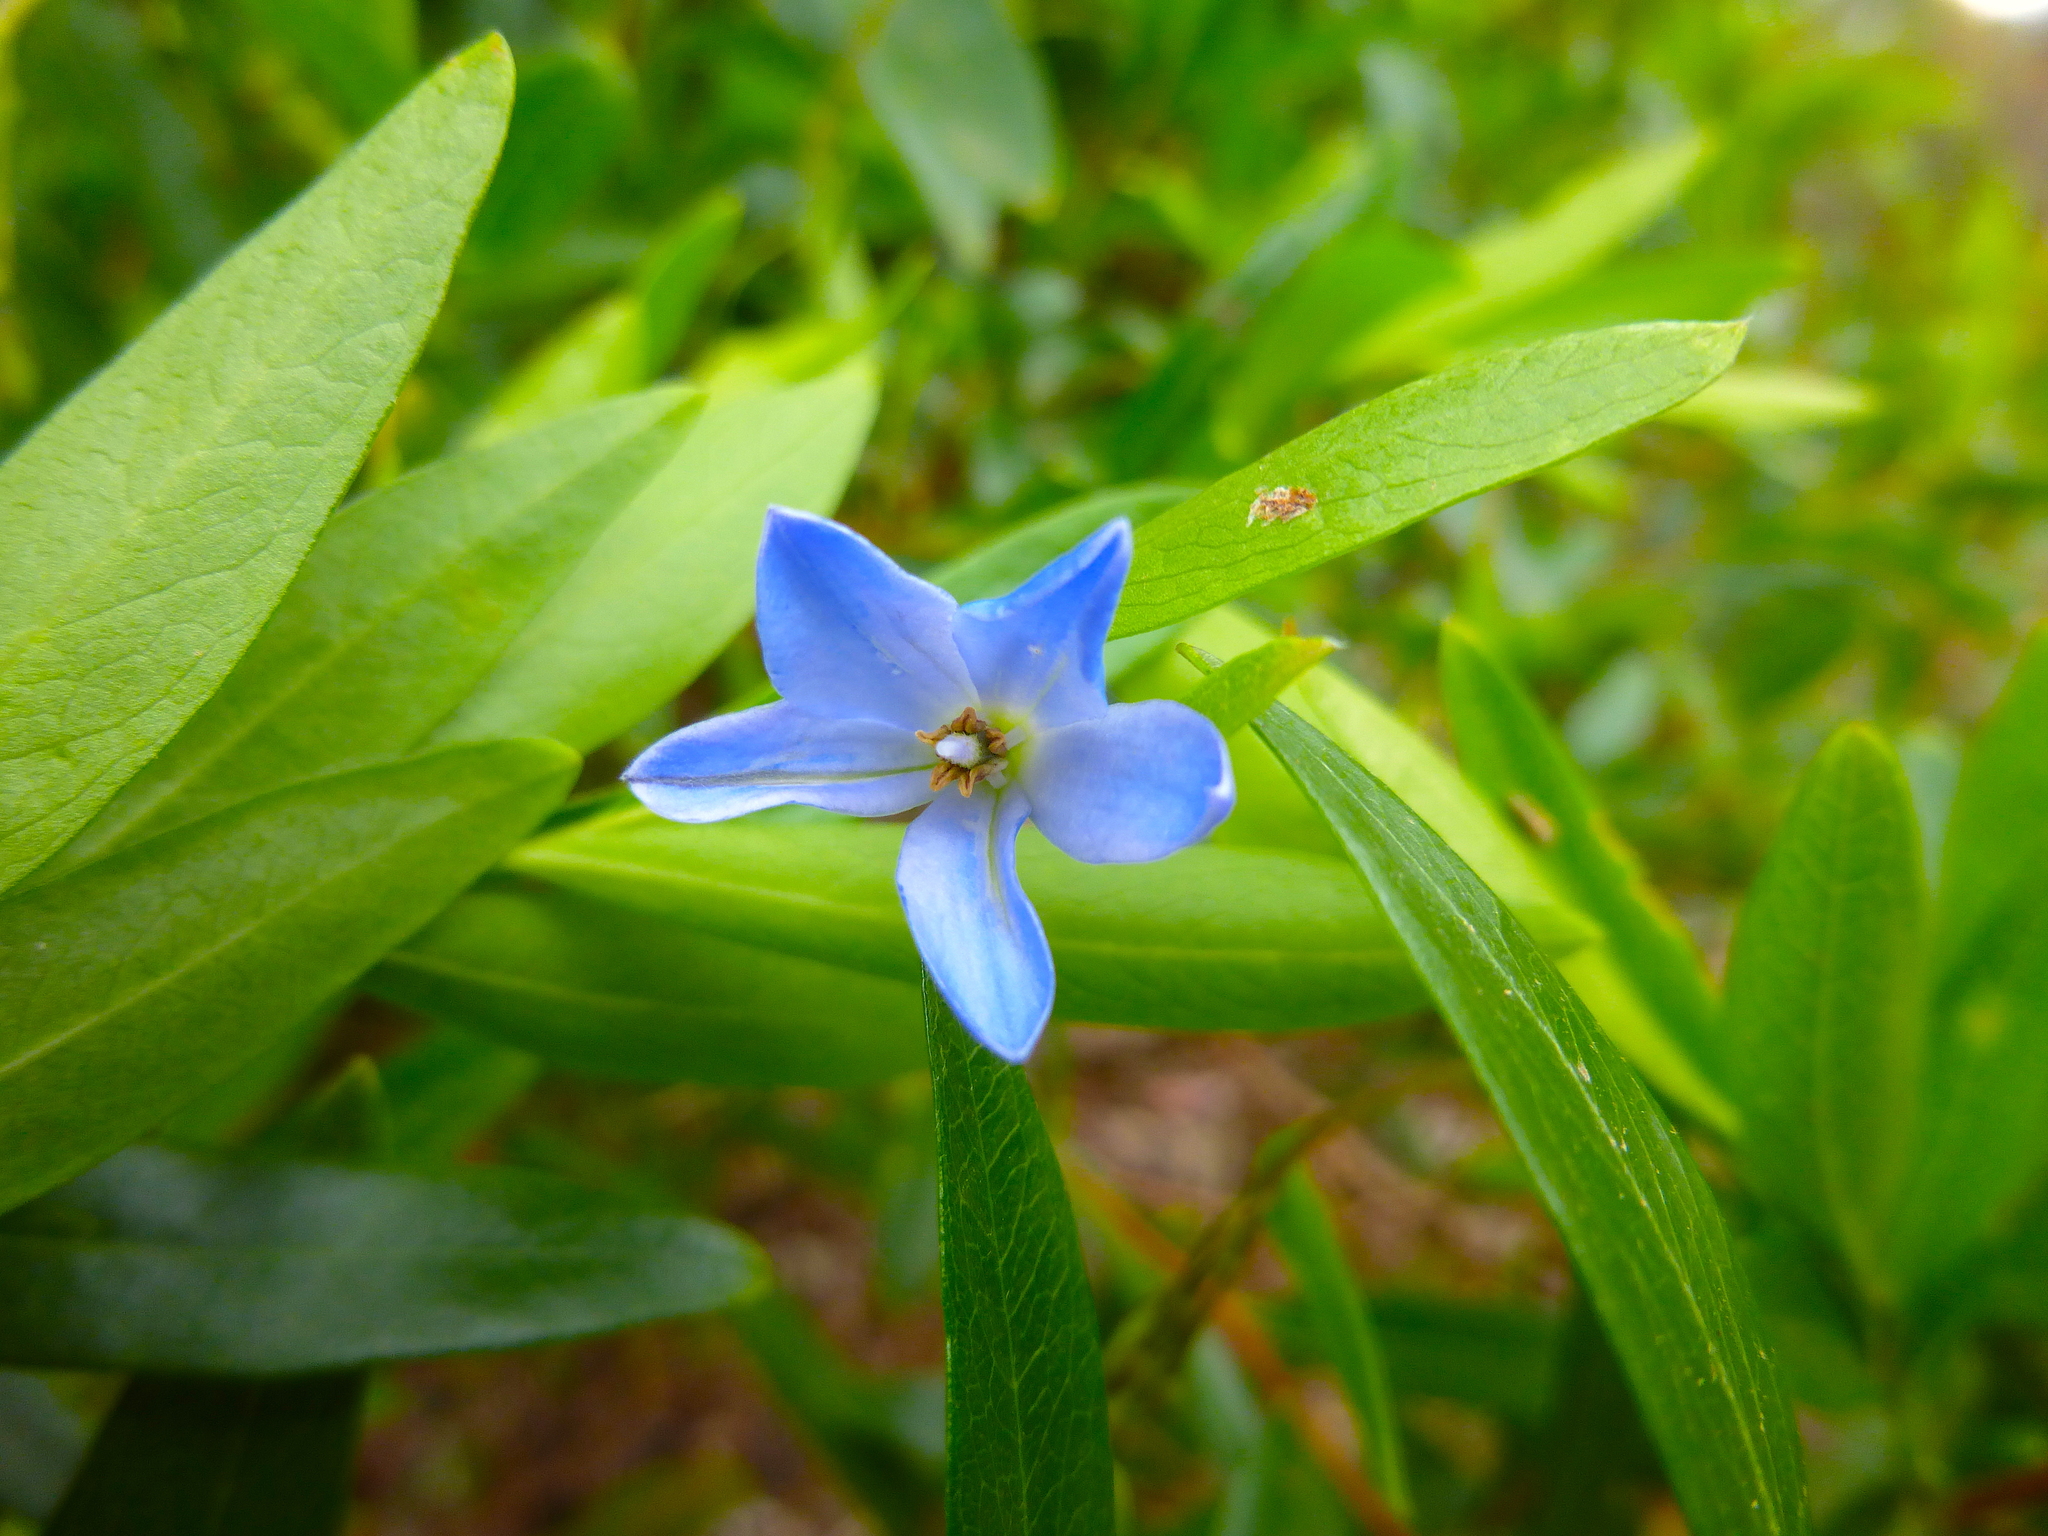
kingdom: Plantae
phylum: Tracheophyta
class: Magnoliopsida
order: Apiales
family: Pittosporaceae
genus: Billardiera
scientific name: Billardiera fusiformis
